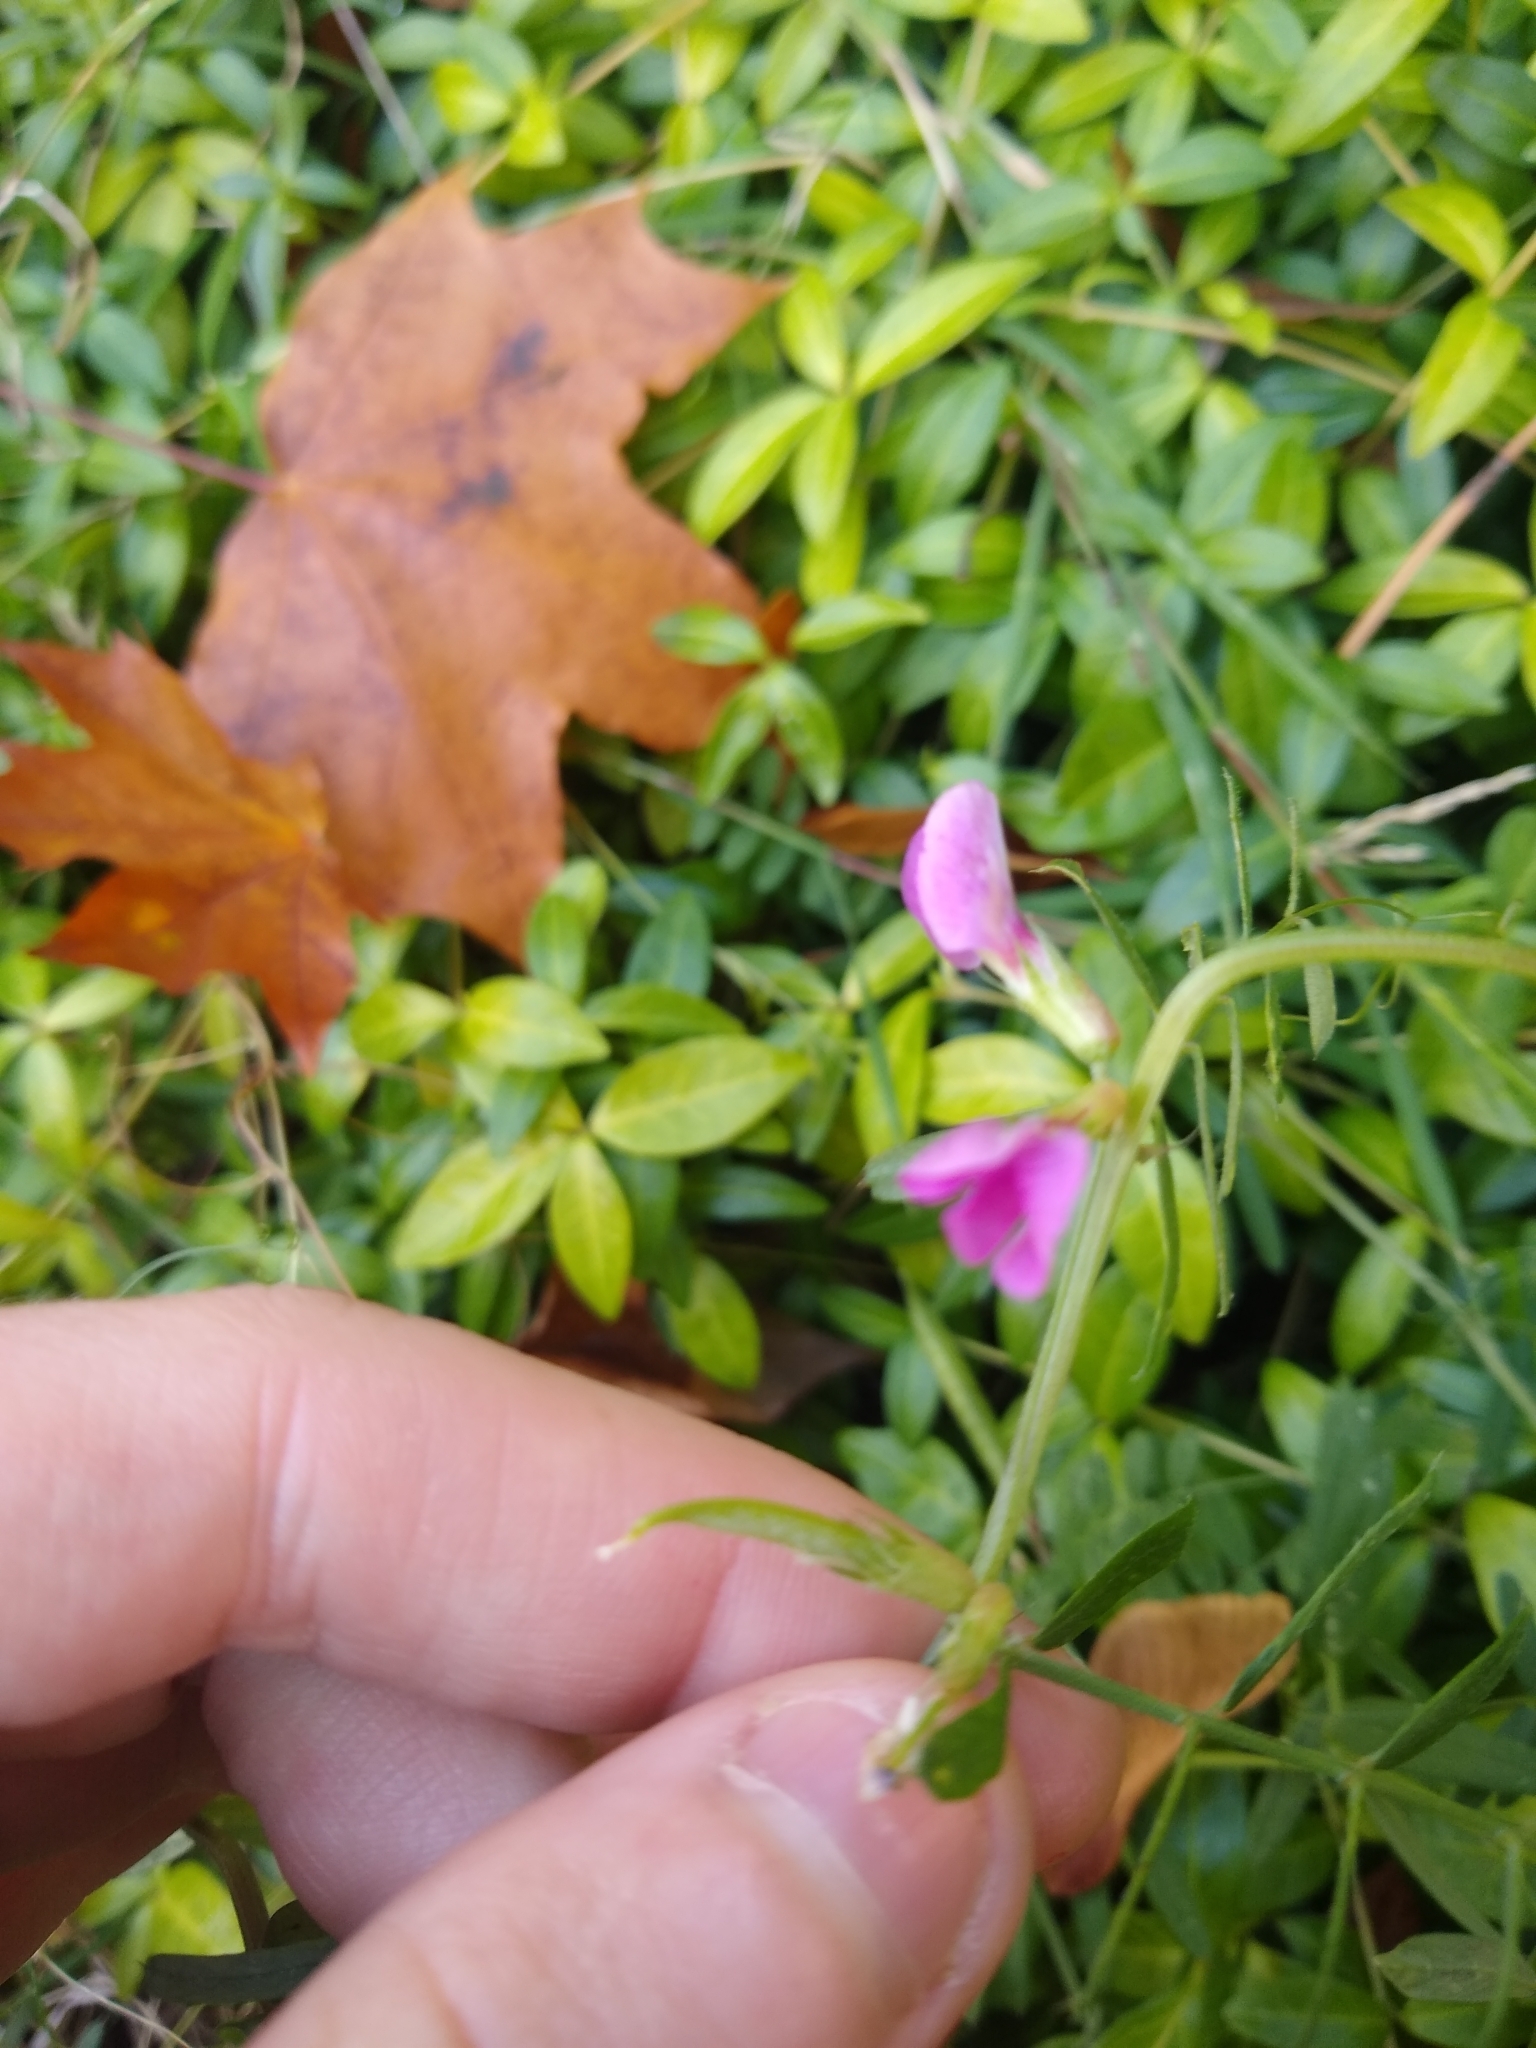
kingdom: Plantae
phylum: Tracheophyta
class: Magnoliopsida
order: Fabales
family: Fabaceae
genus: Vicia
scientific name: Vicia sativa
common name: Garden vetch
